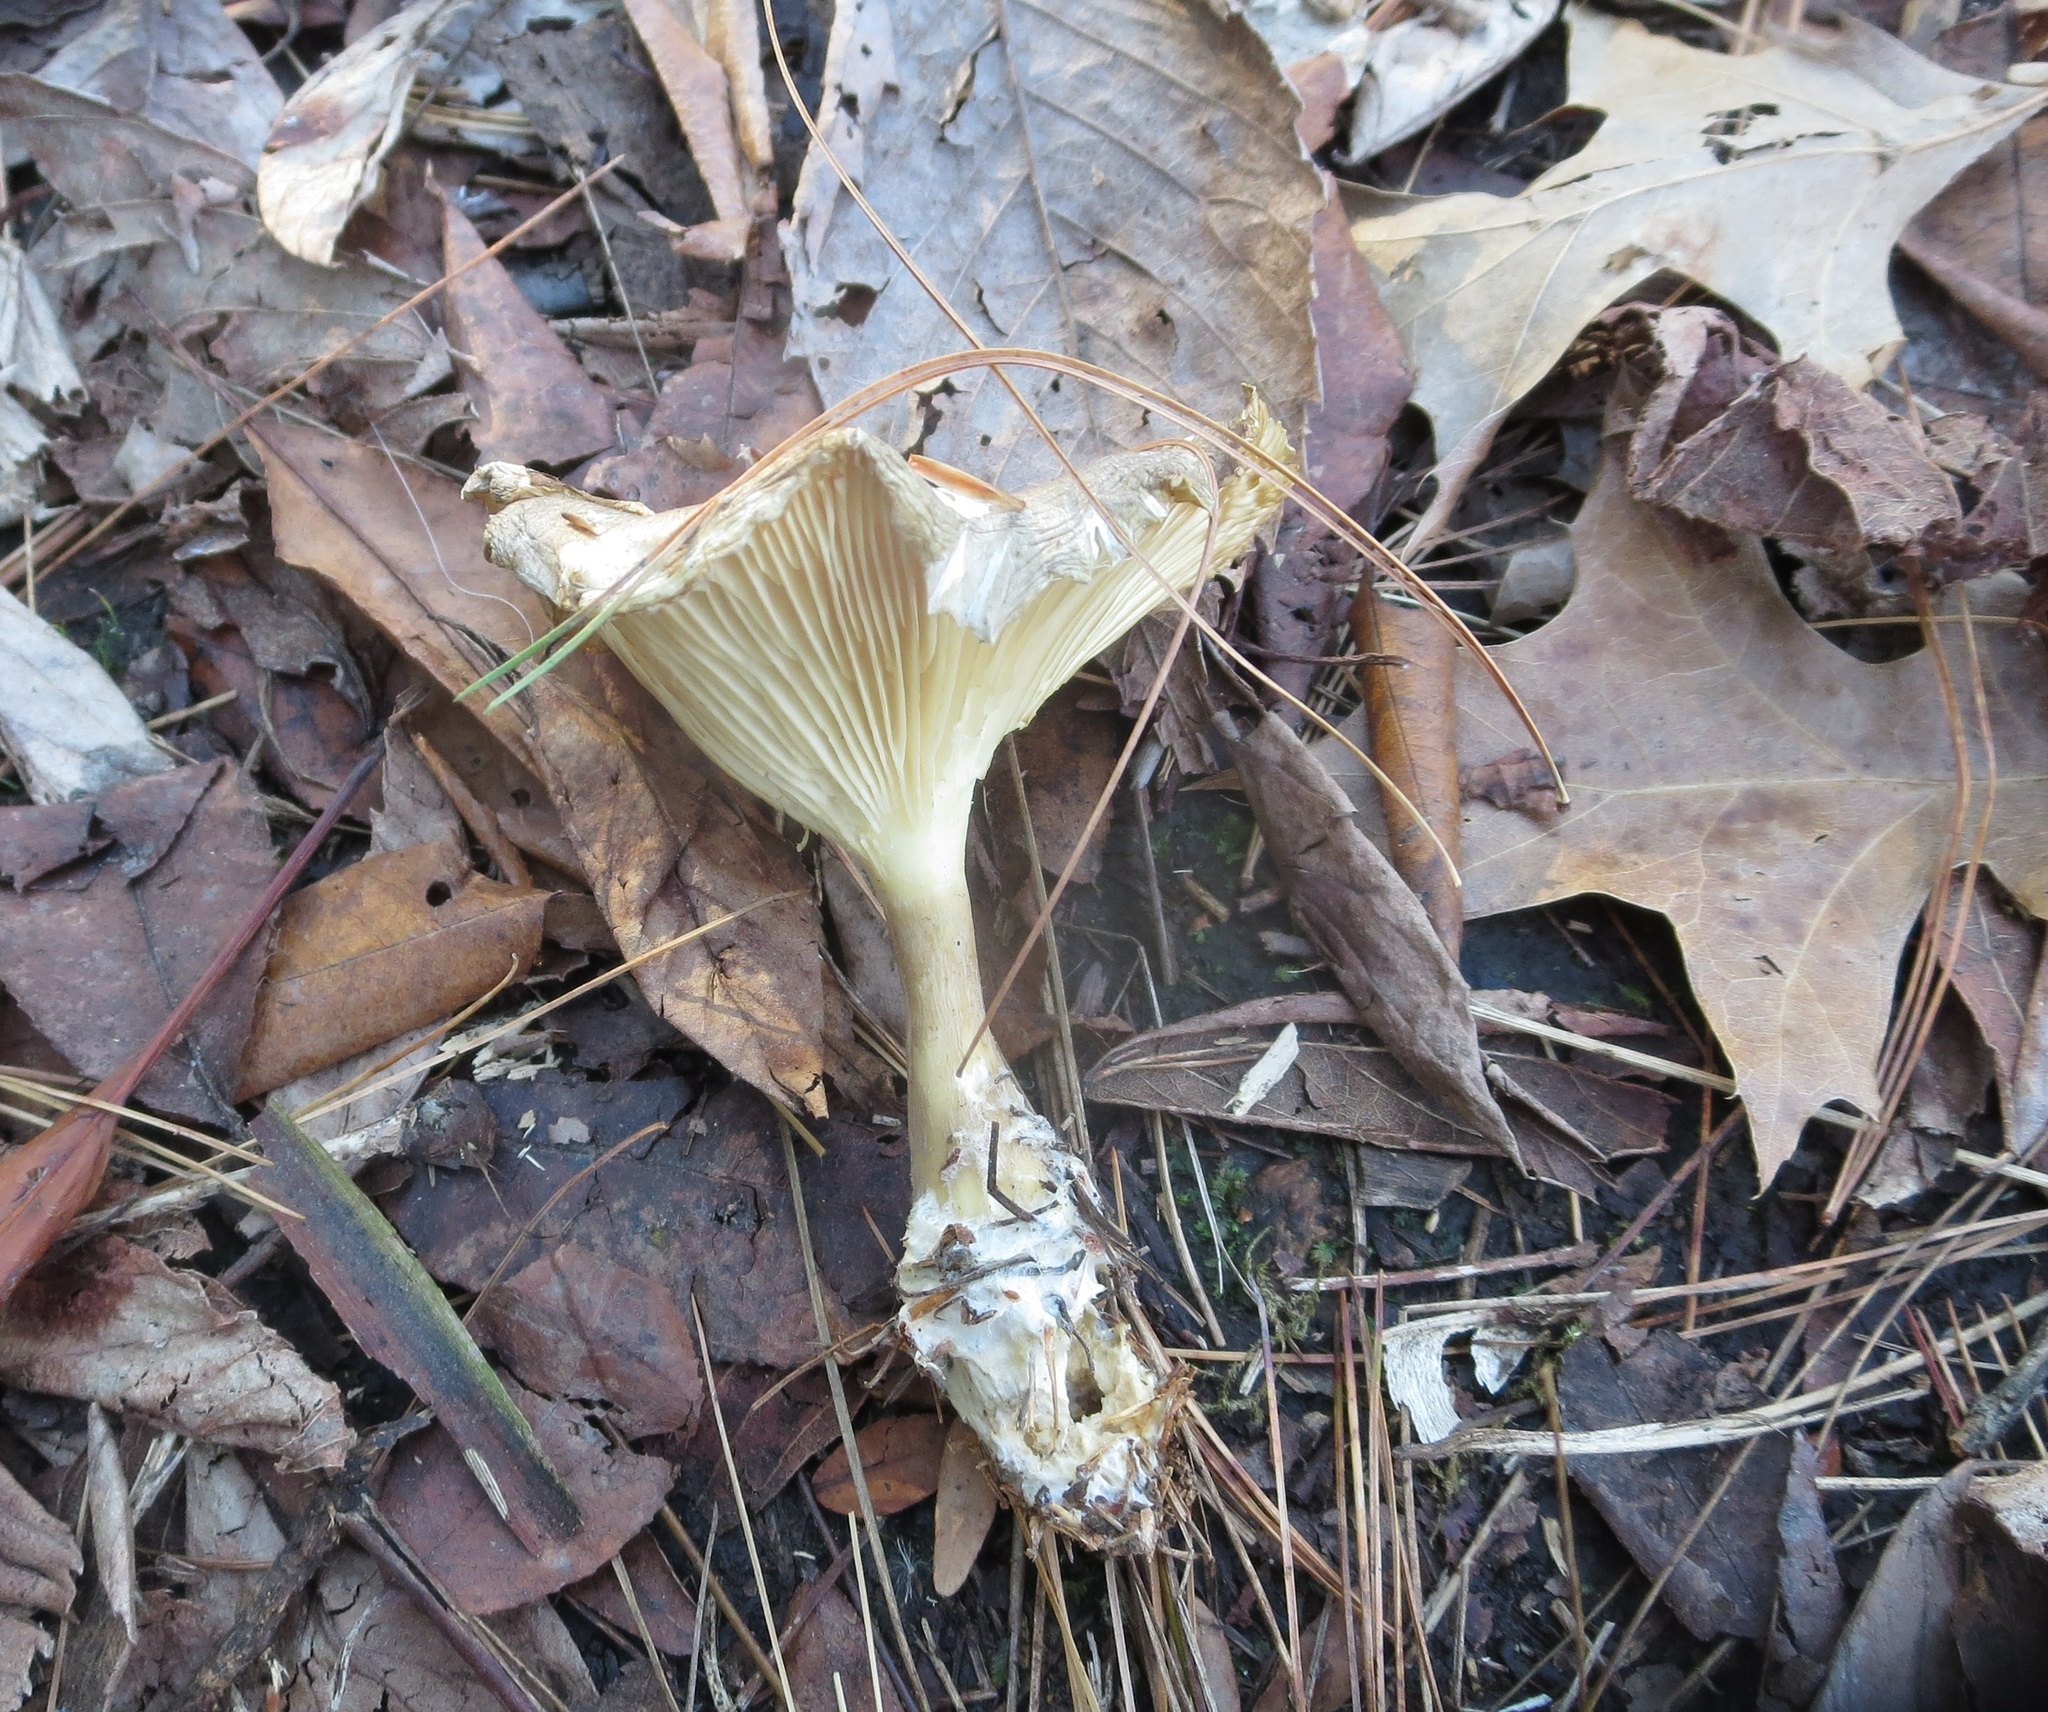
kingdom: Fungi
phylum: Basidiomycota
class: Agaricomycetes
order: Agaricales
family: Hygrophoraceae
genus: Ampulloclitocybe
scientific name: Ampulloclitocybe clavipes
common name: Club foot
